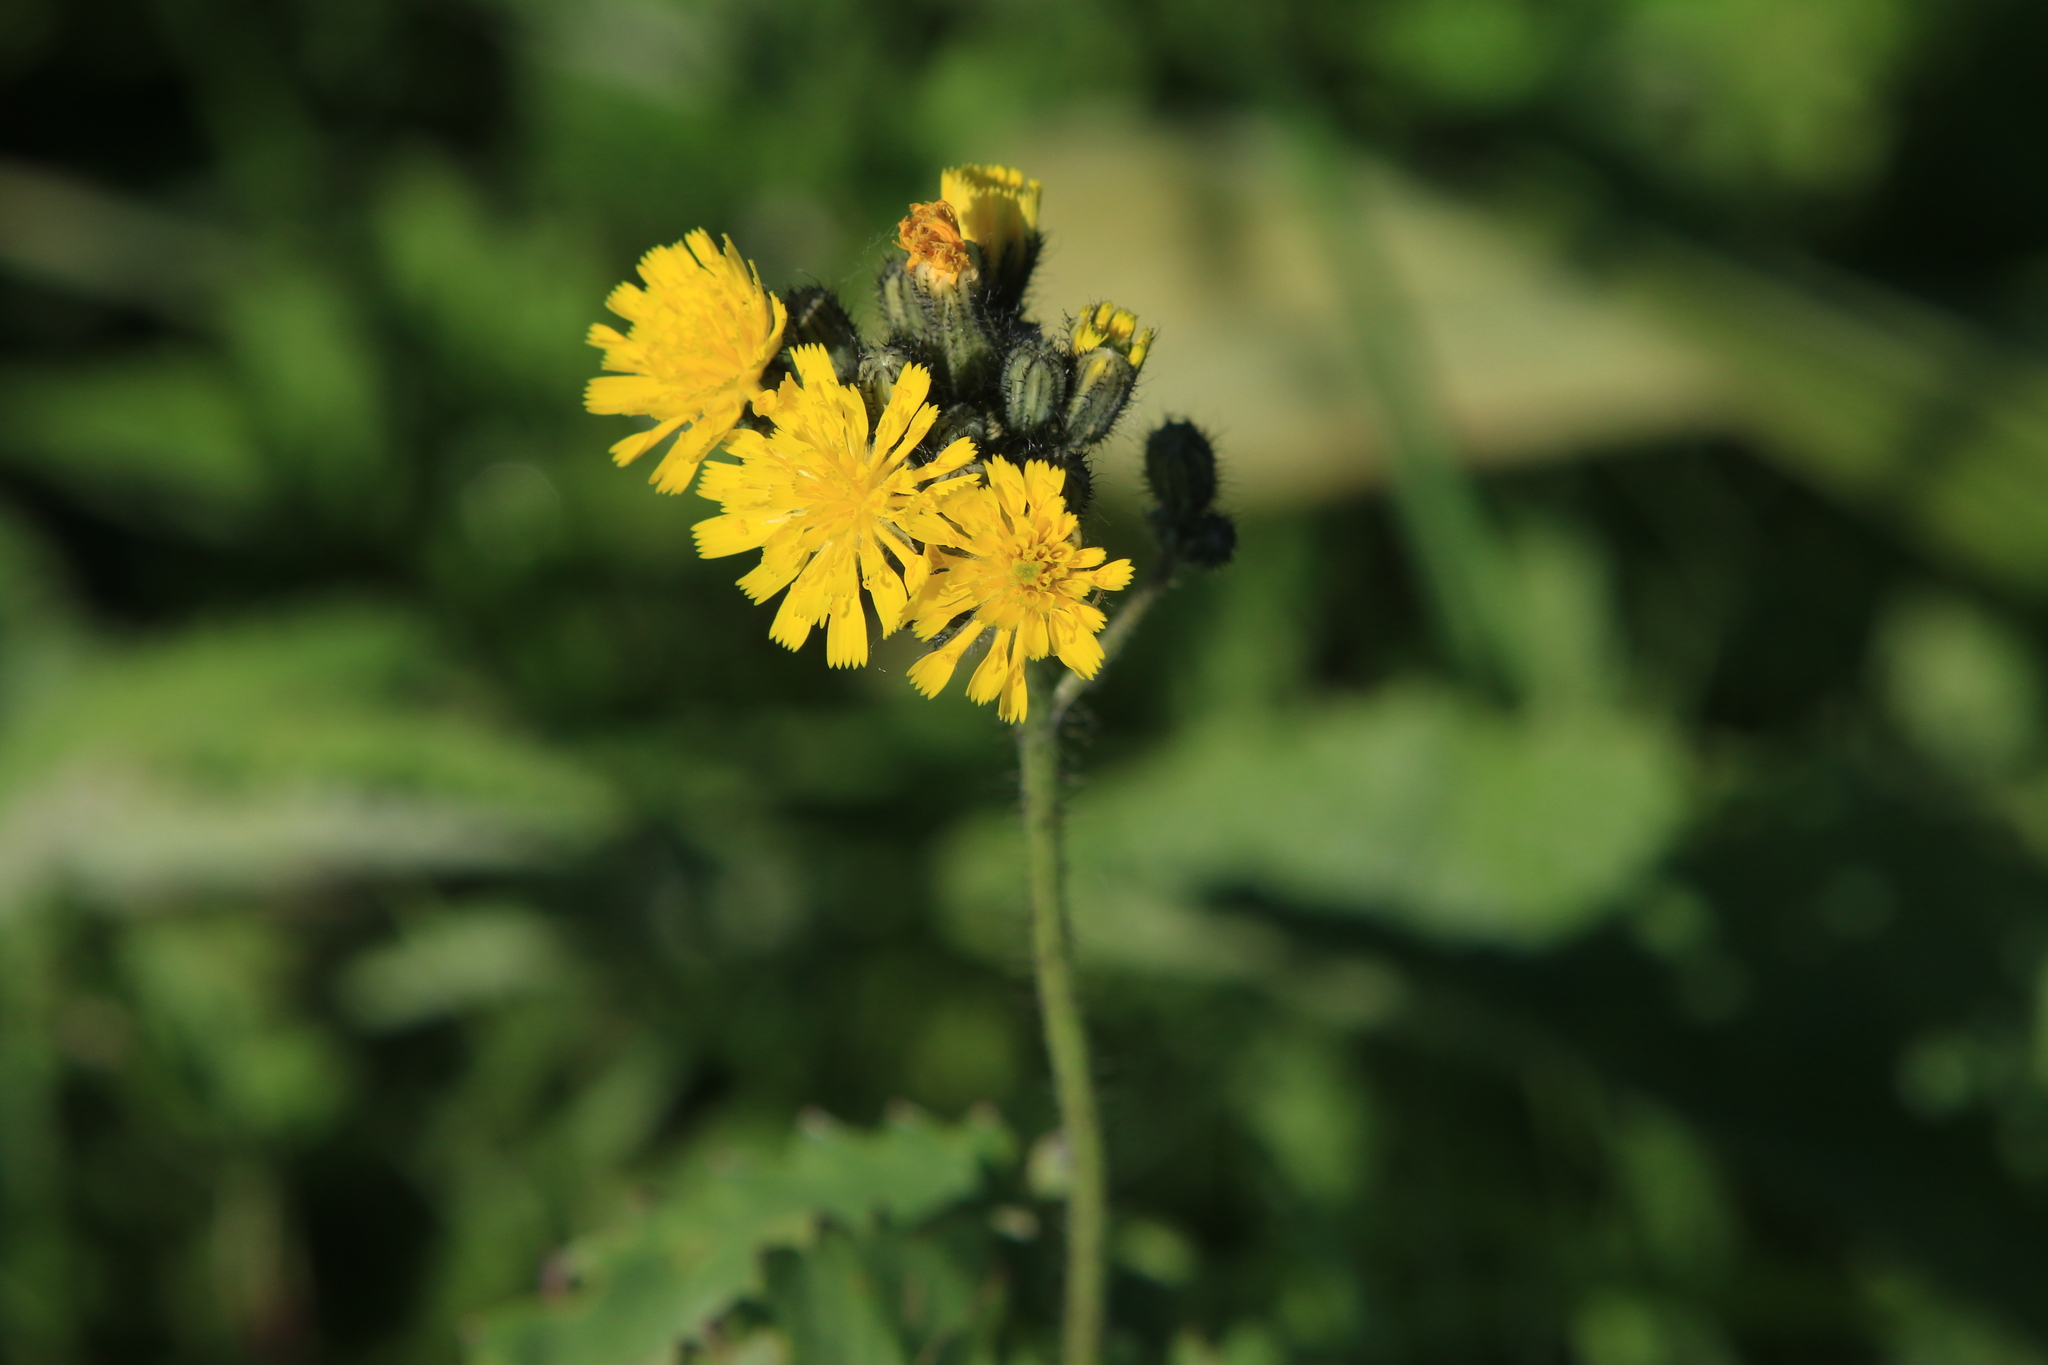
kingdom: Plantae
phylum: Tracheophyta
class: Magnoliopsida
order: Asterales
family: Asteraceae
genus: Pilosella
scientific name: Pilosella
